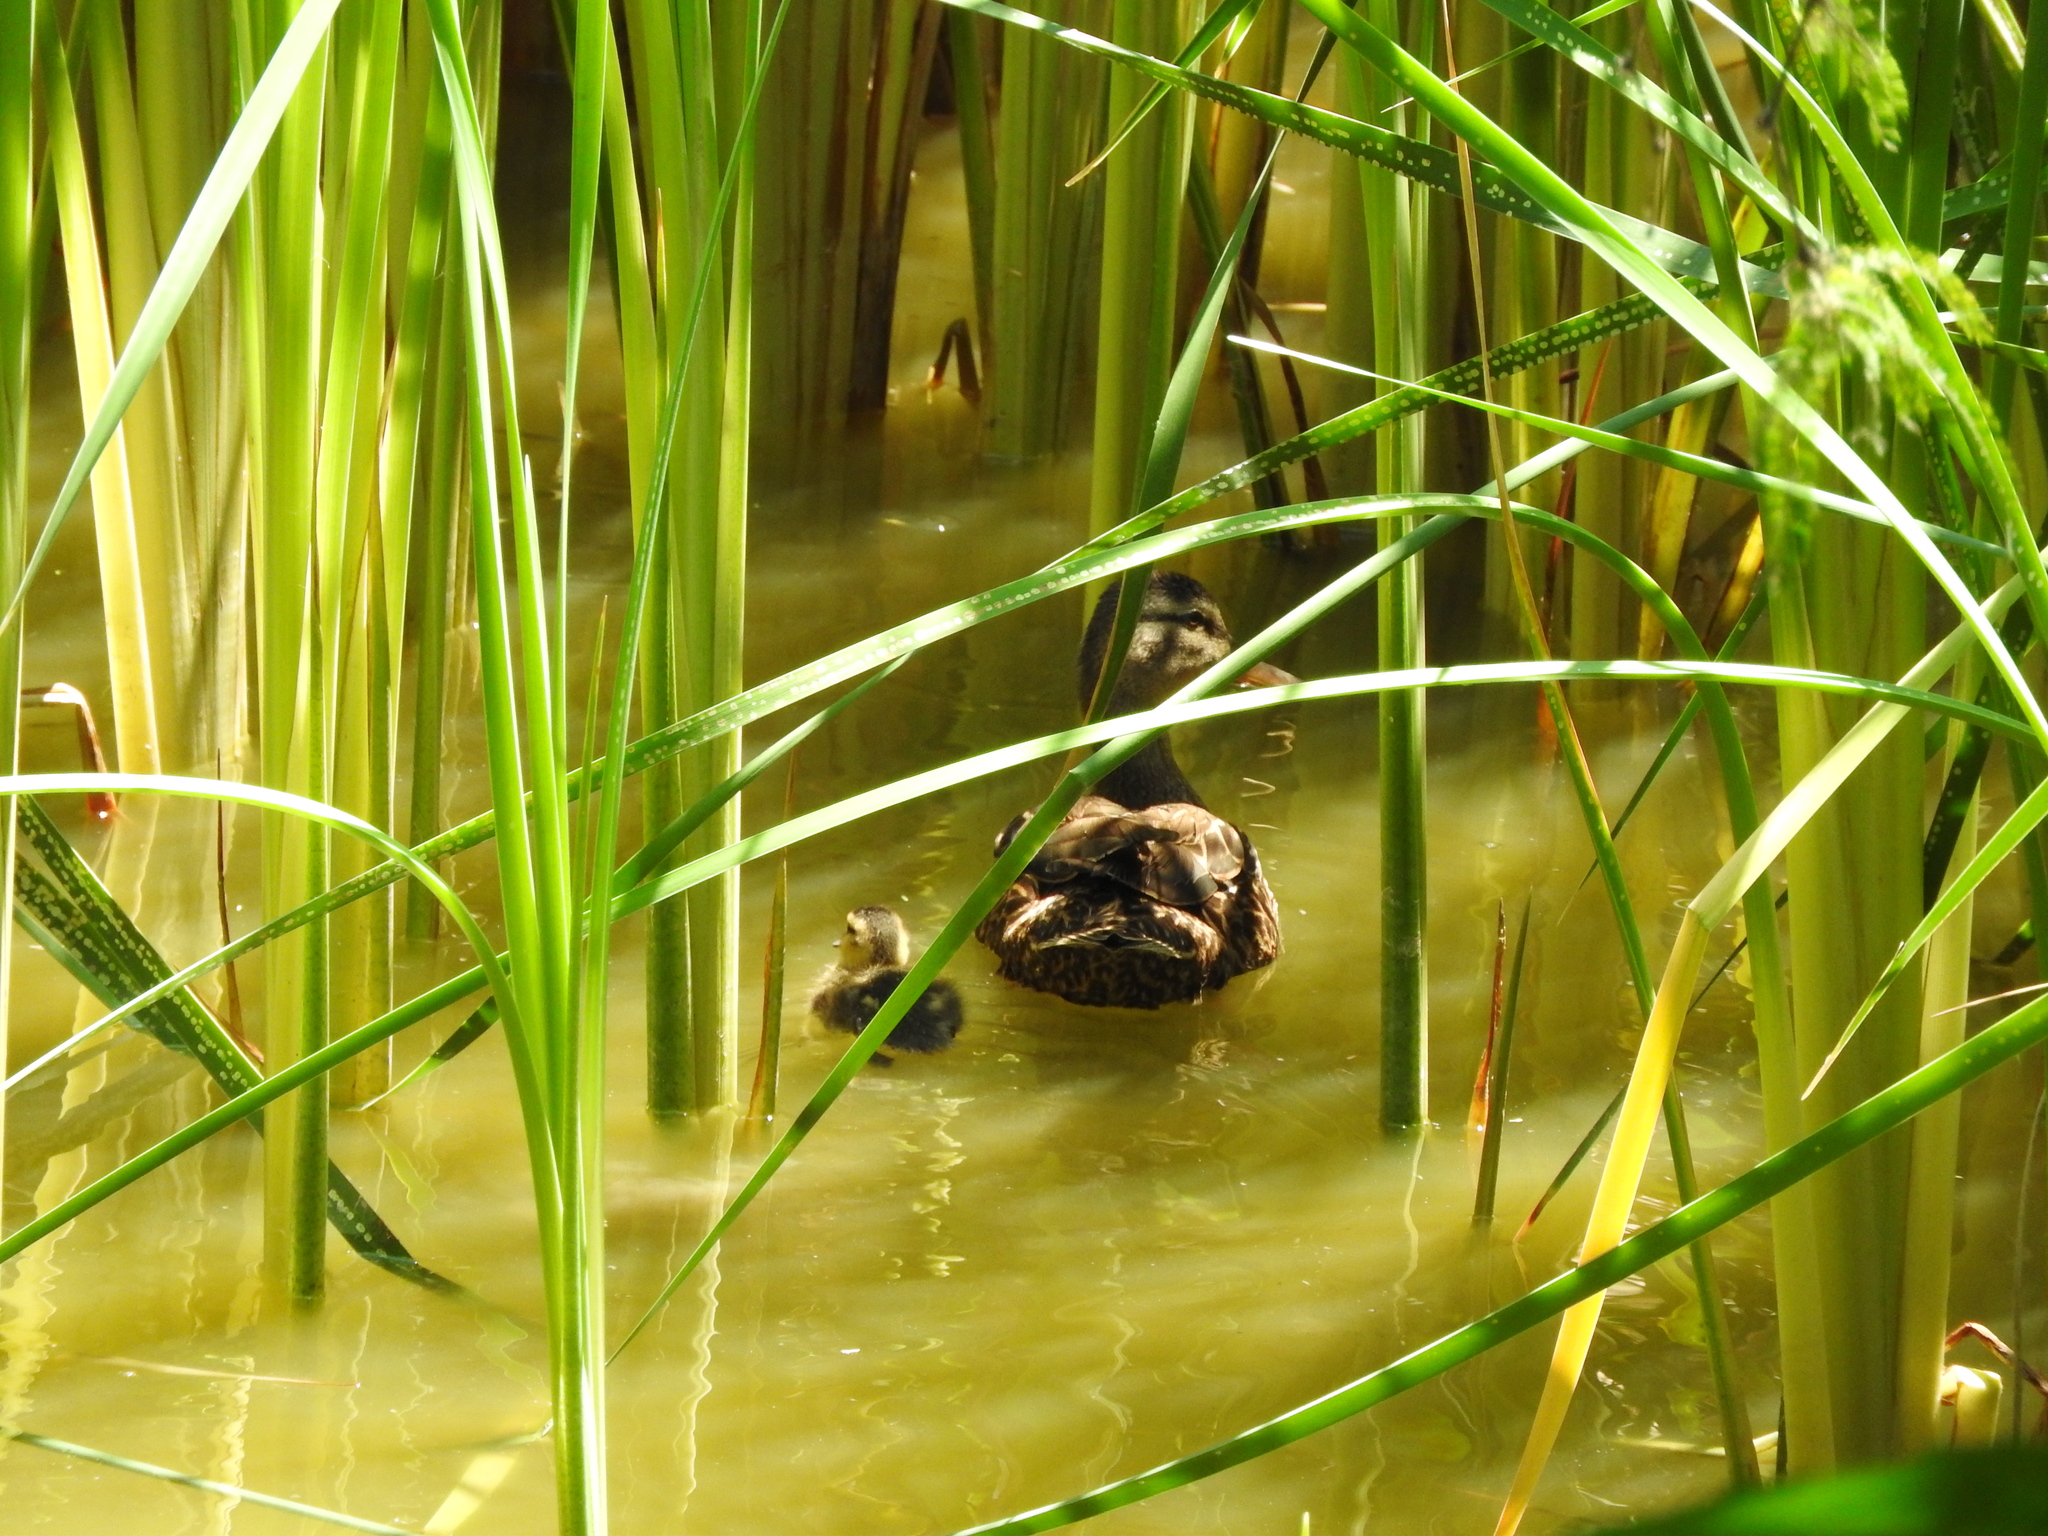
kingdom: Animalia
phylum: Chordata
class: Aves
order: Anseriformes
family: Anatidae
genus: Anas
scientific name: Anas diazi
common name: Mexican duck
